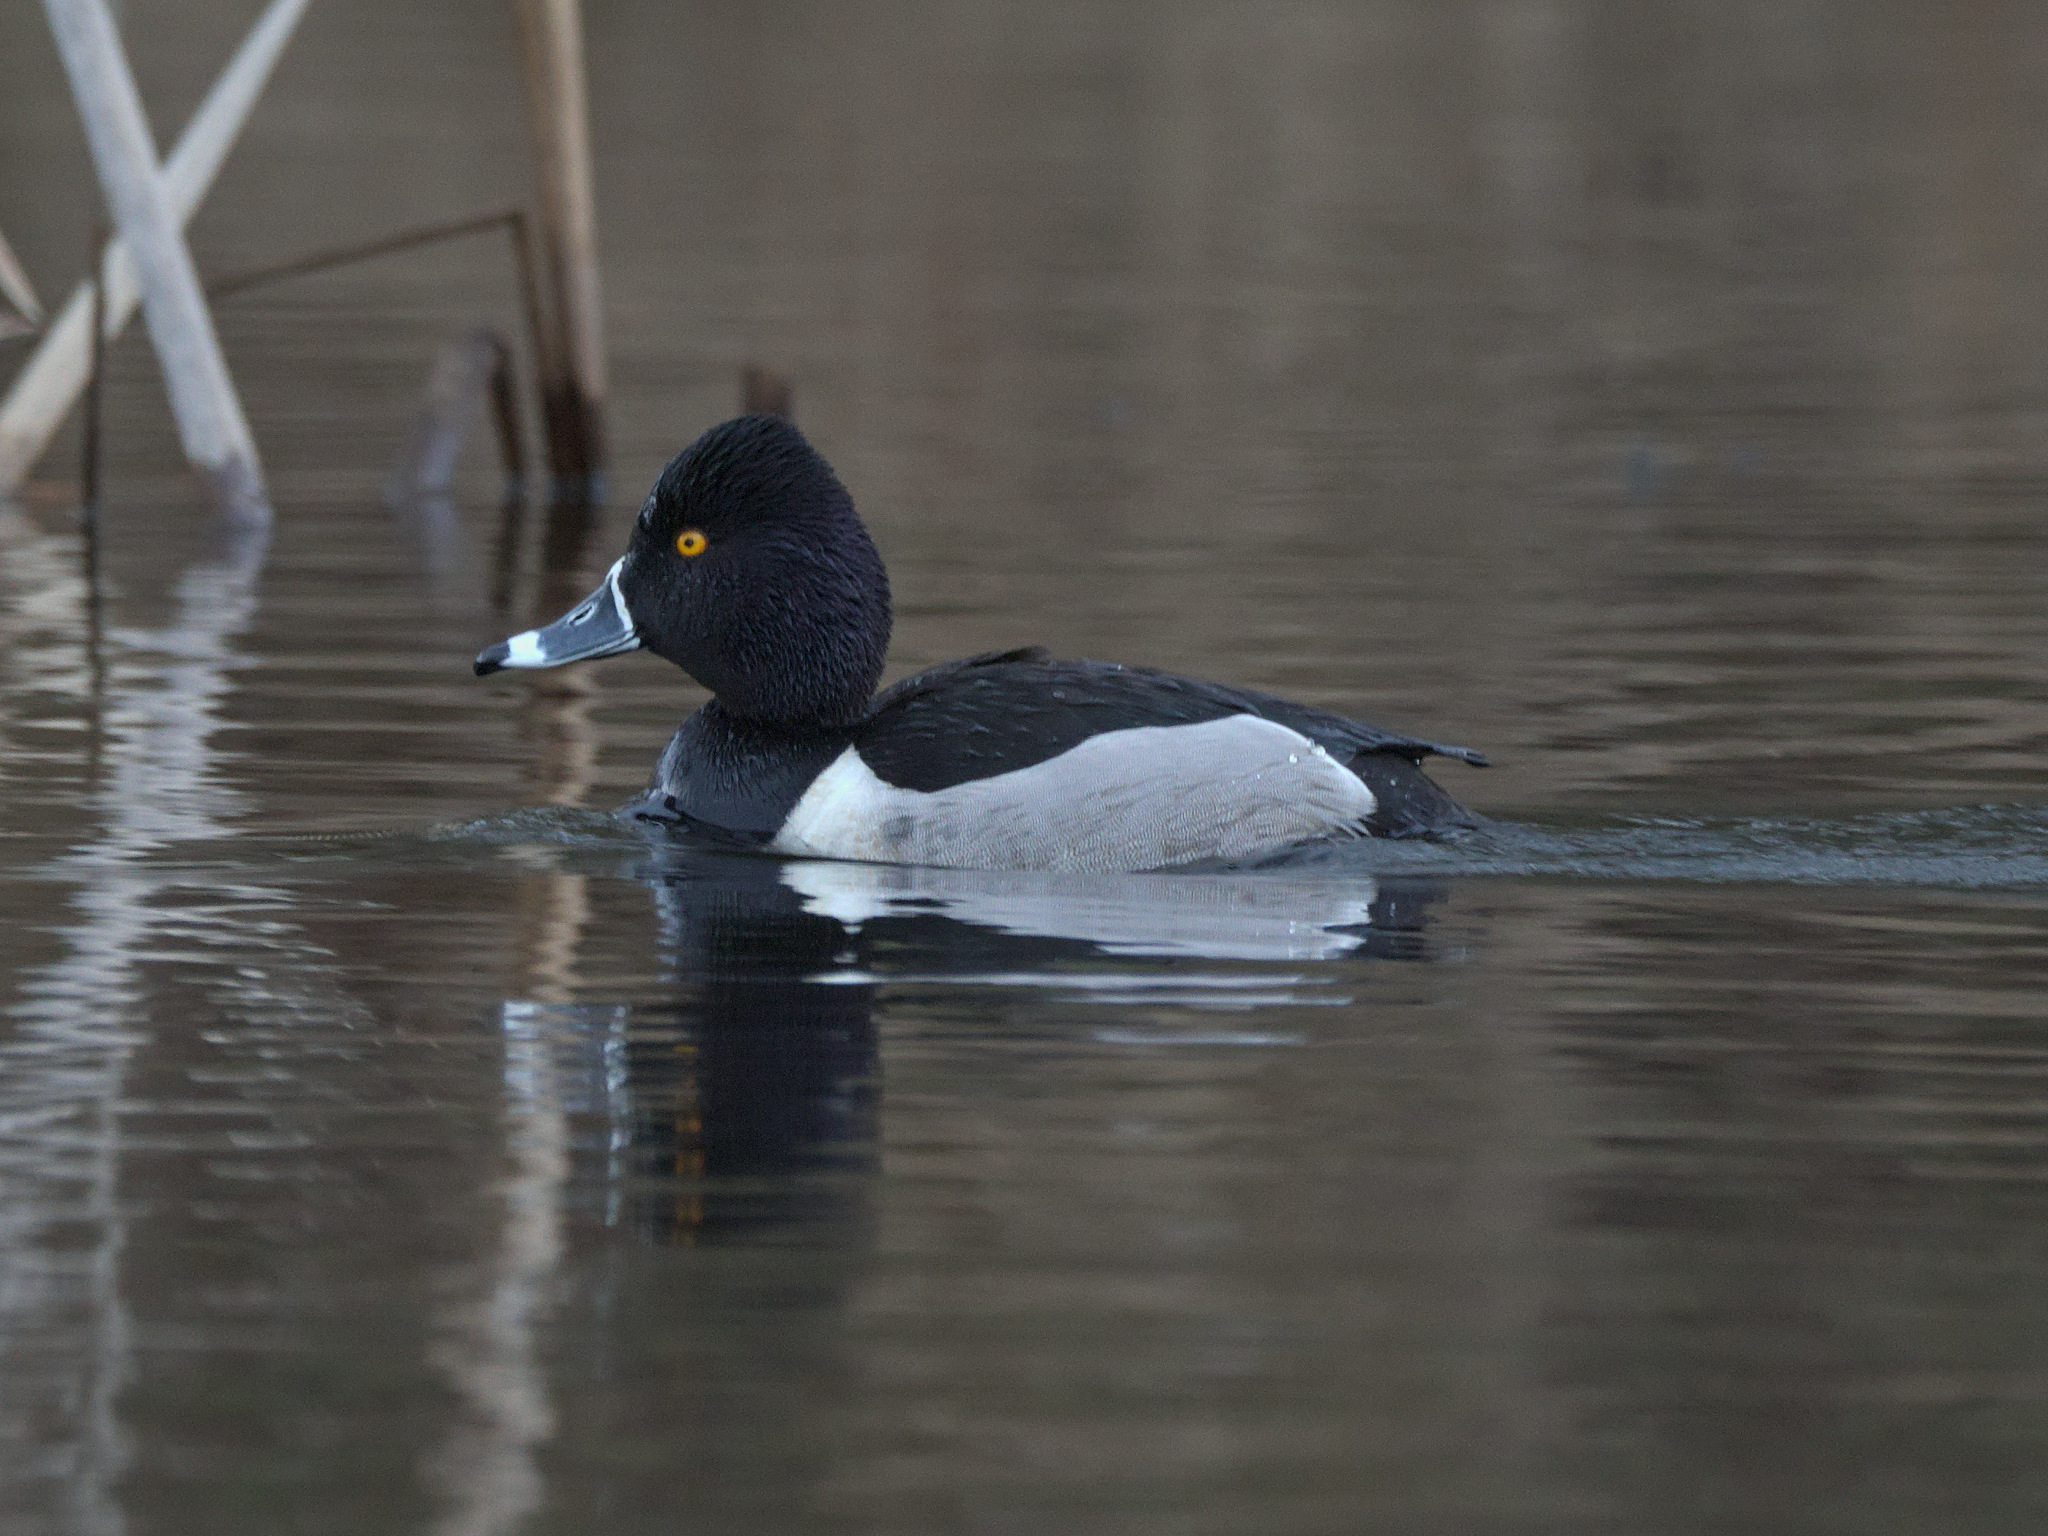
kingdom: Animalia
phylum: Chordata
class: Aves
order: Anseriformes
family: Anatidae
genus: Aythya
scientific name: Aythya collaris
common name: Ring-necked duck
